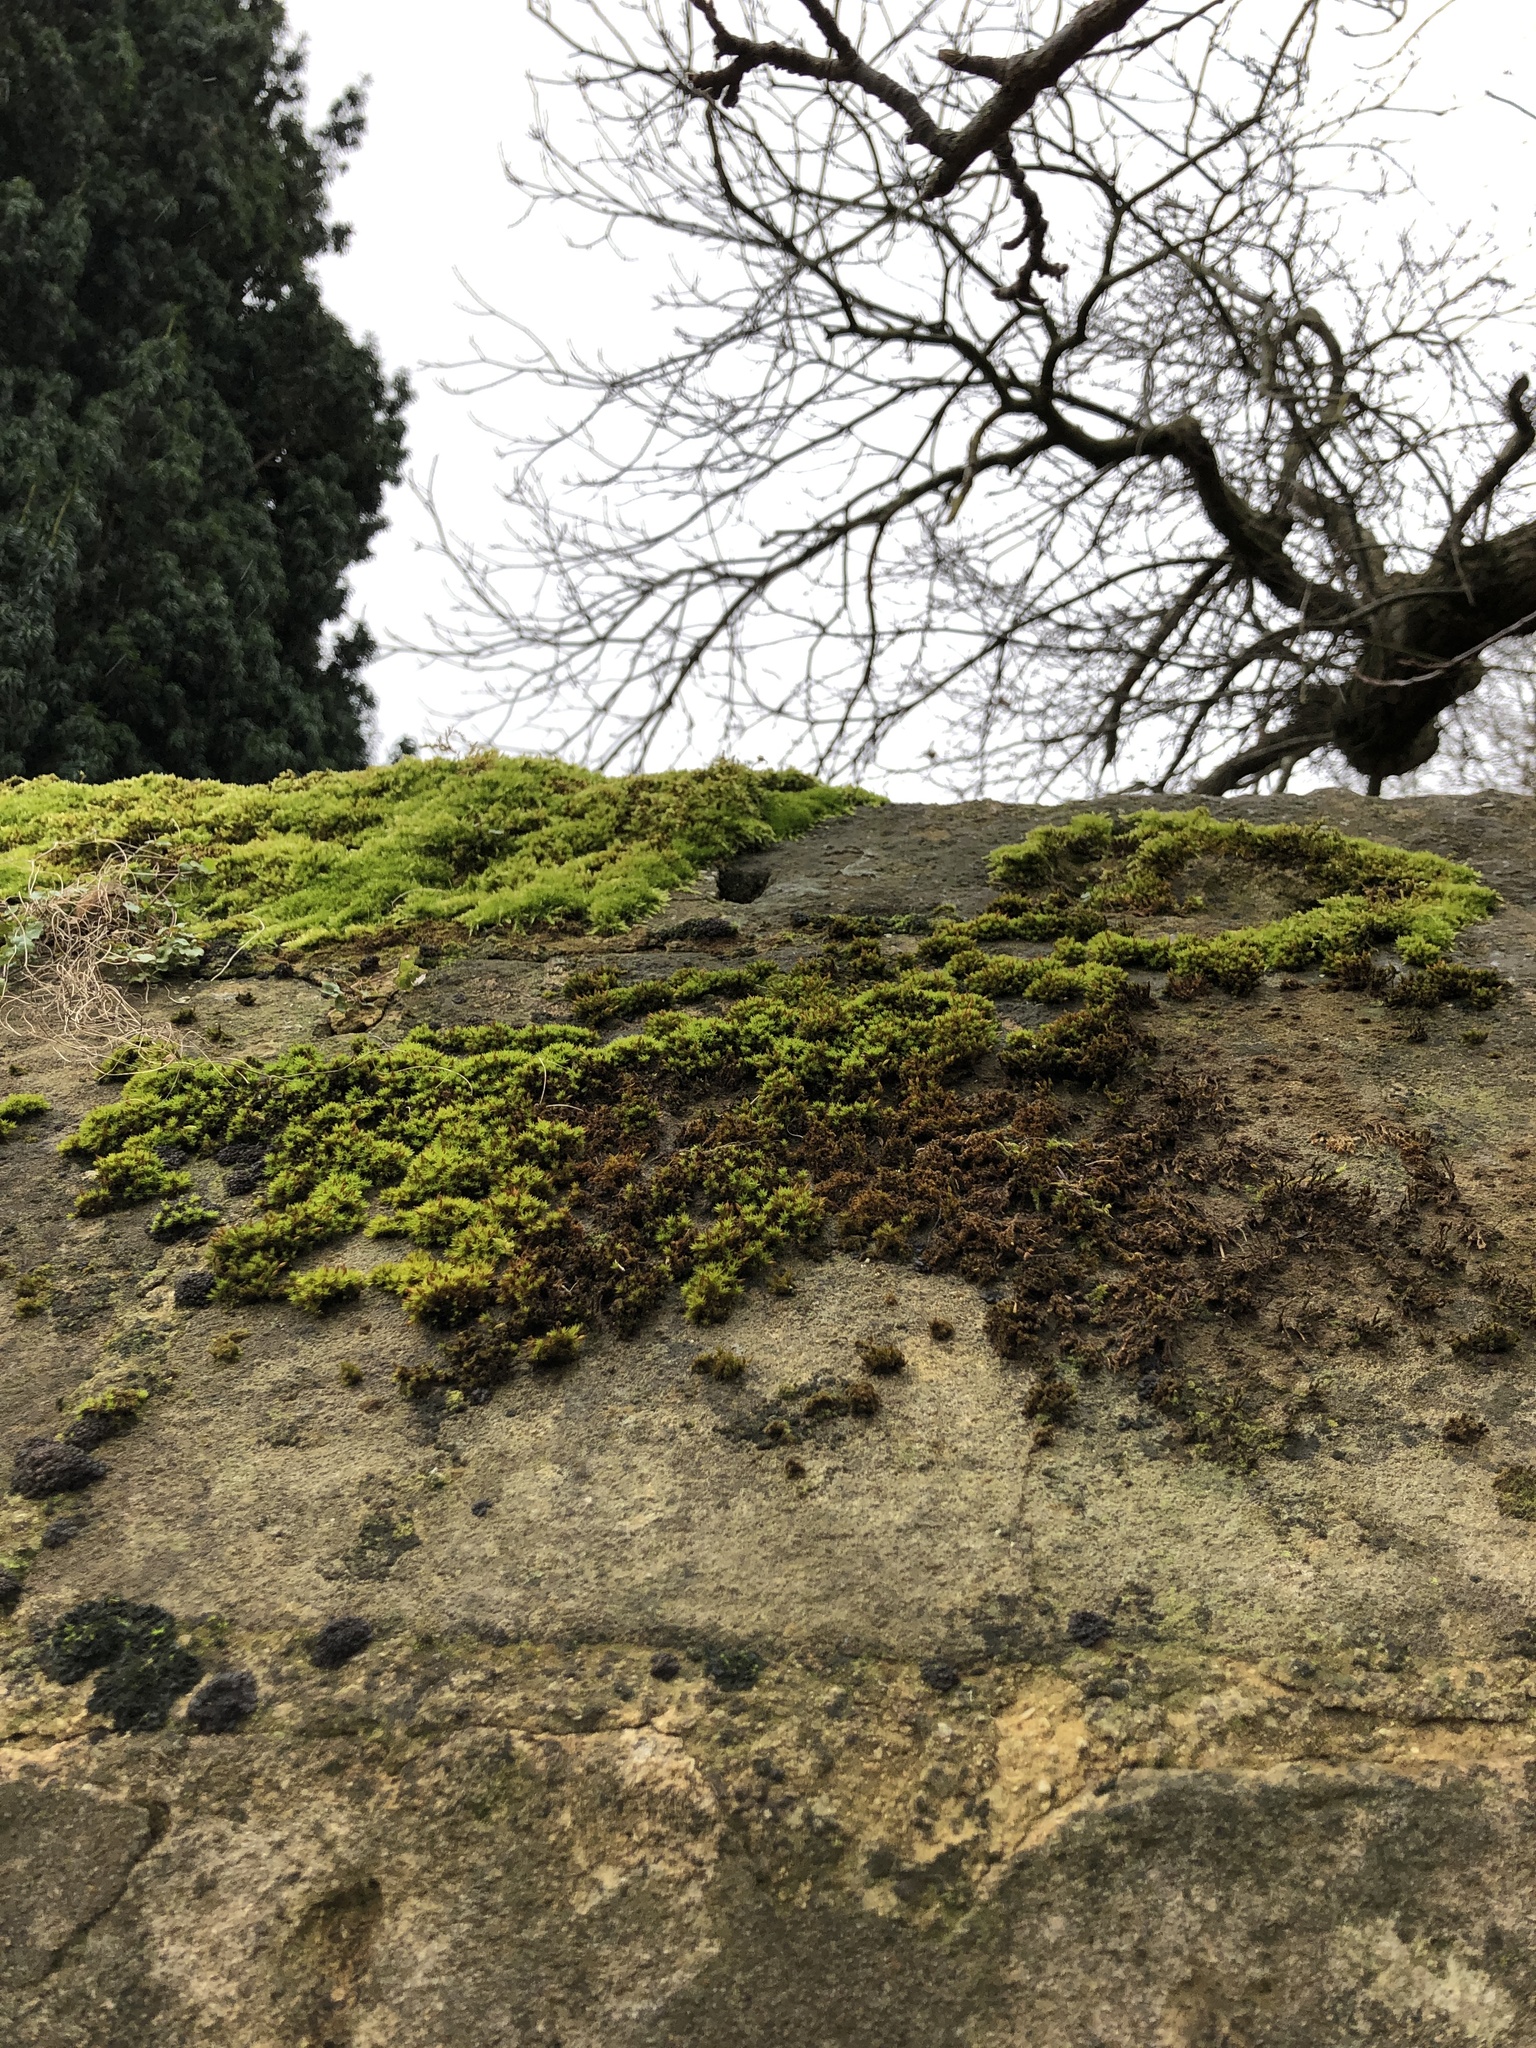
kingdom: Plantae
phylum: Bryophyta
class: Bryopsida
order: Orthotrichales
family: Orthotrichaceae
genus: Orthotrichum
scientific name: Orthotrichum anomalum
